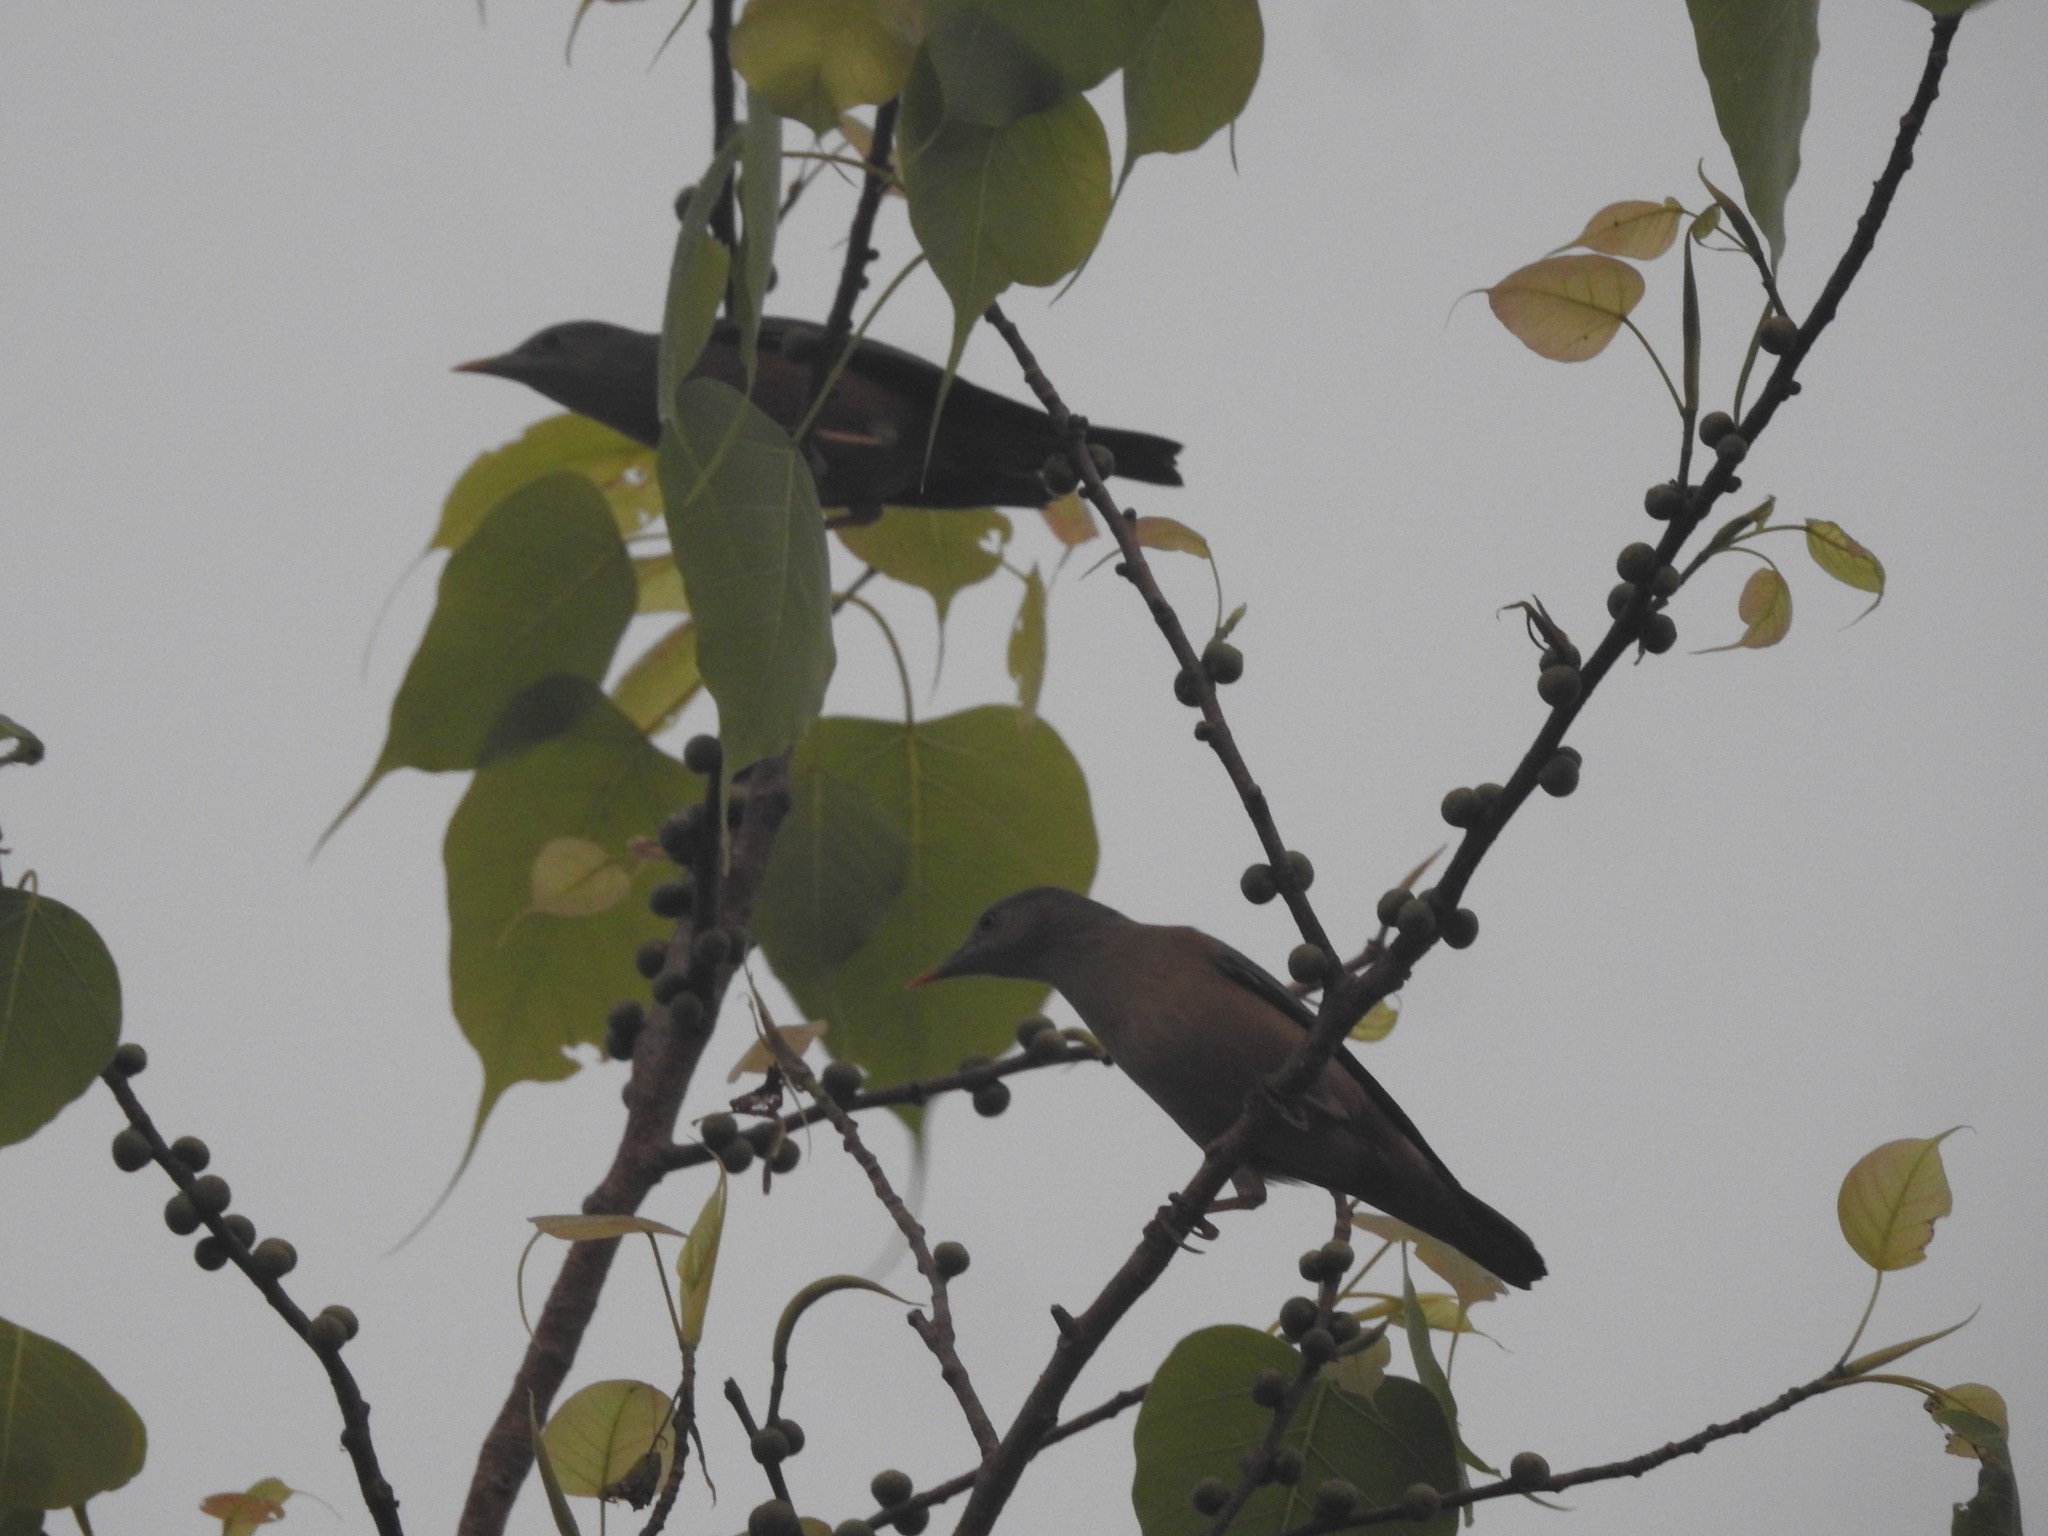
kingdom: Animalia
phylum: Chordata
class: Aves
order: Passeriformes
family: Sturnidae
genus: Sturnia
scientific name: Sturnia malabarica
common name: Chestnut-tailed starling
